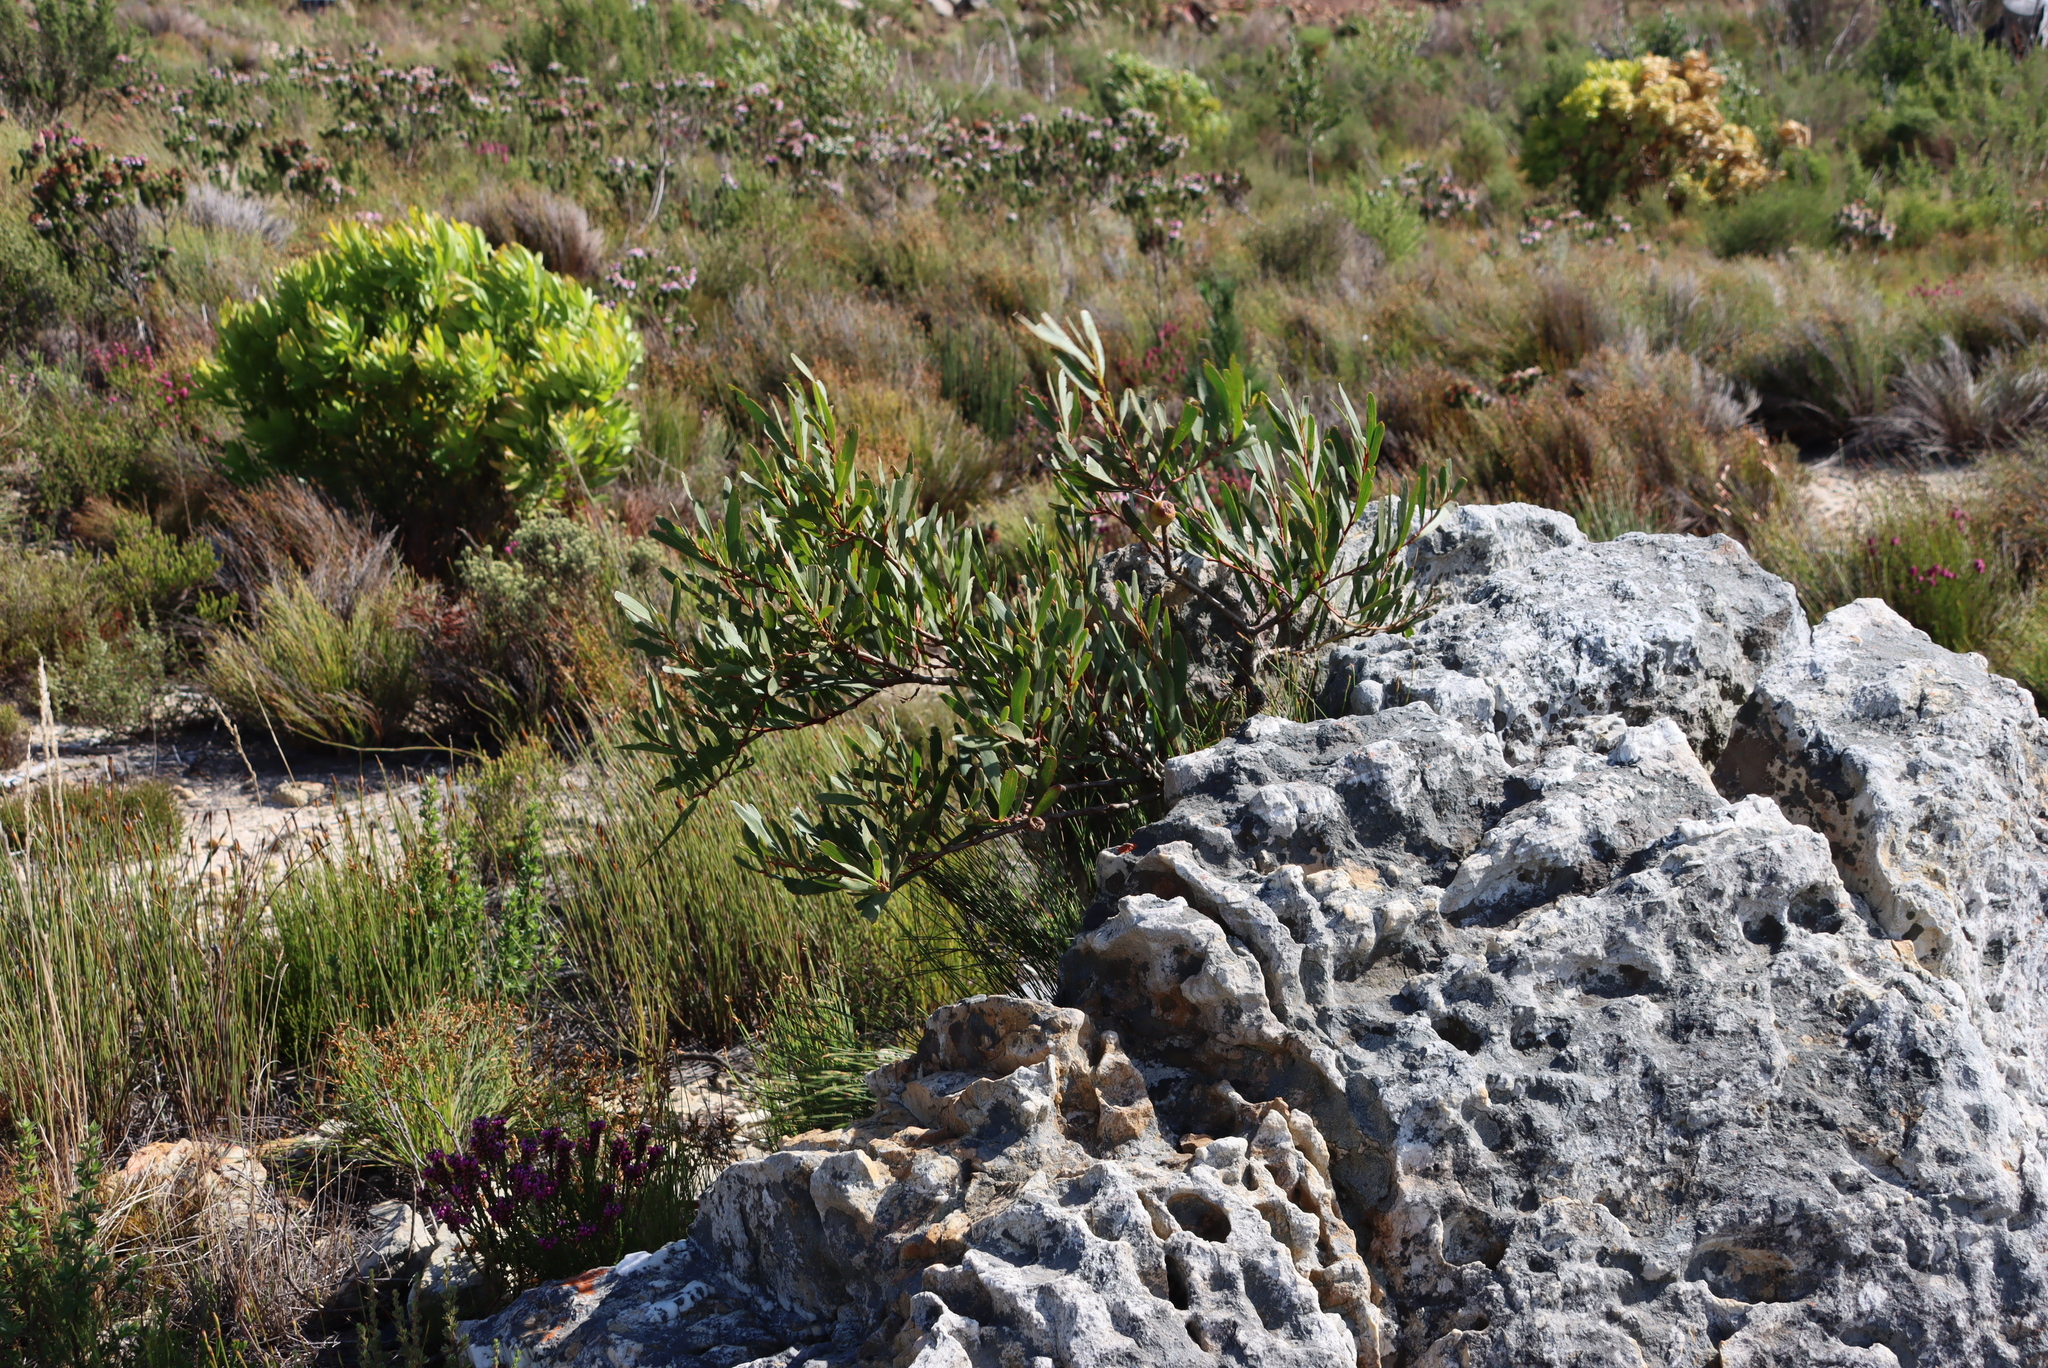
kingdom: Plantae
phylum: Tracheophyta
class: Magnoliopsida
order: Fabales
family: Fabaceae
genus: Acacia
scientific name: Acacia longifolia
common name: Sydney golden wattle
